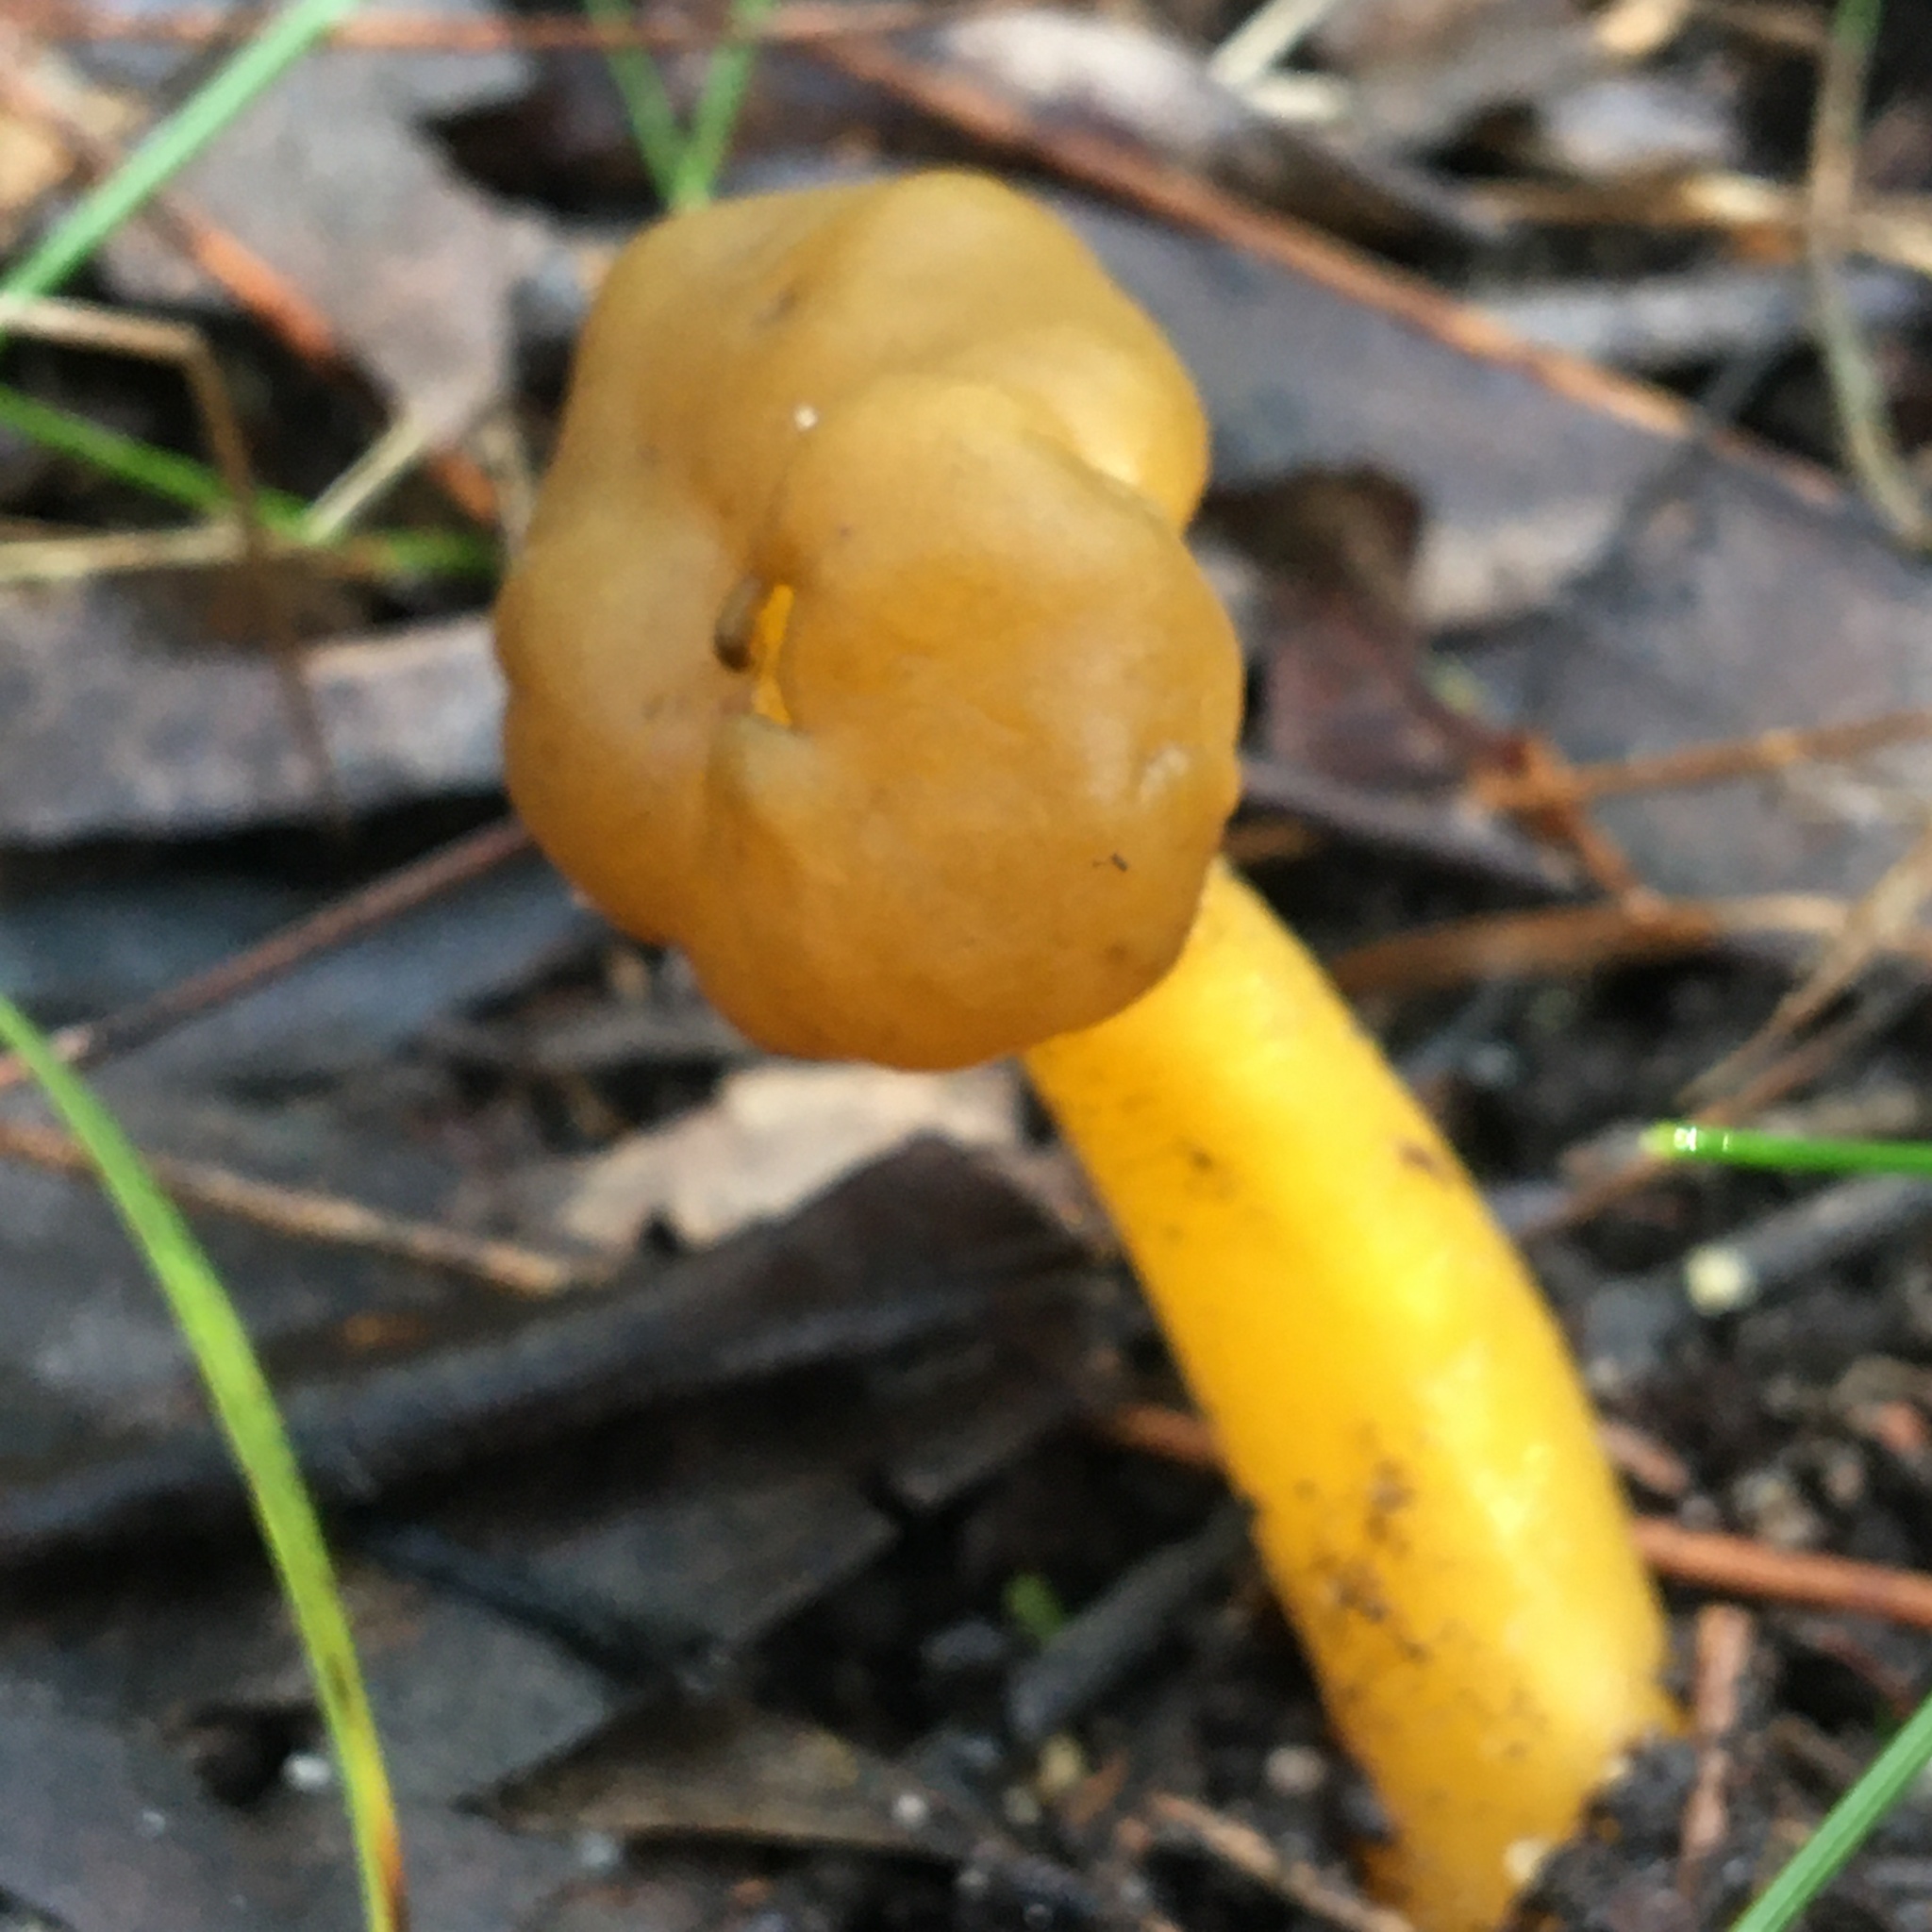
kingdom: Fungi
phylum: Ascomycota
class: Leotiomycetes
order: Leotiales
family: Leotiaceae
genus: Leotia
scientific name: Leotia lubrica
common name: Jellybaby
